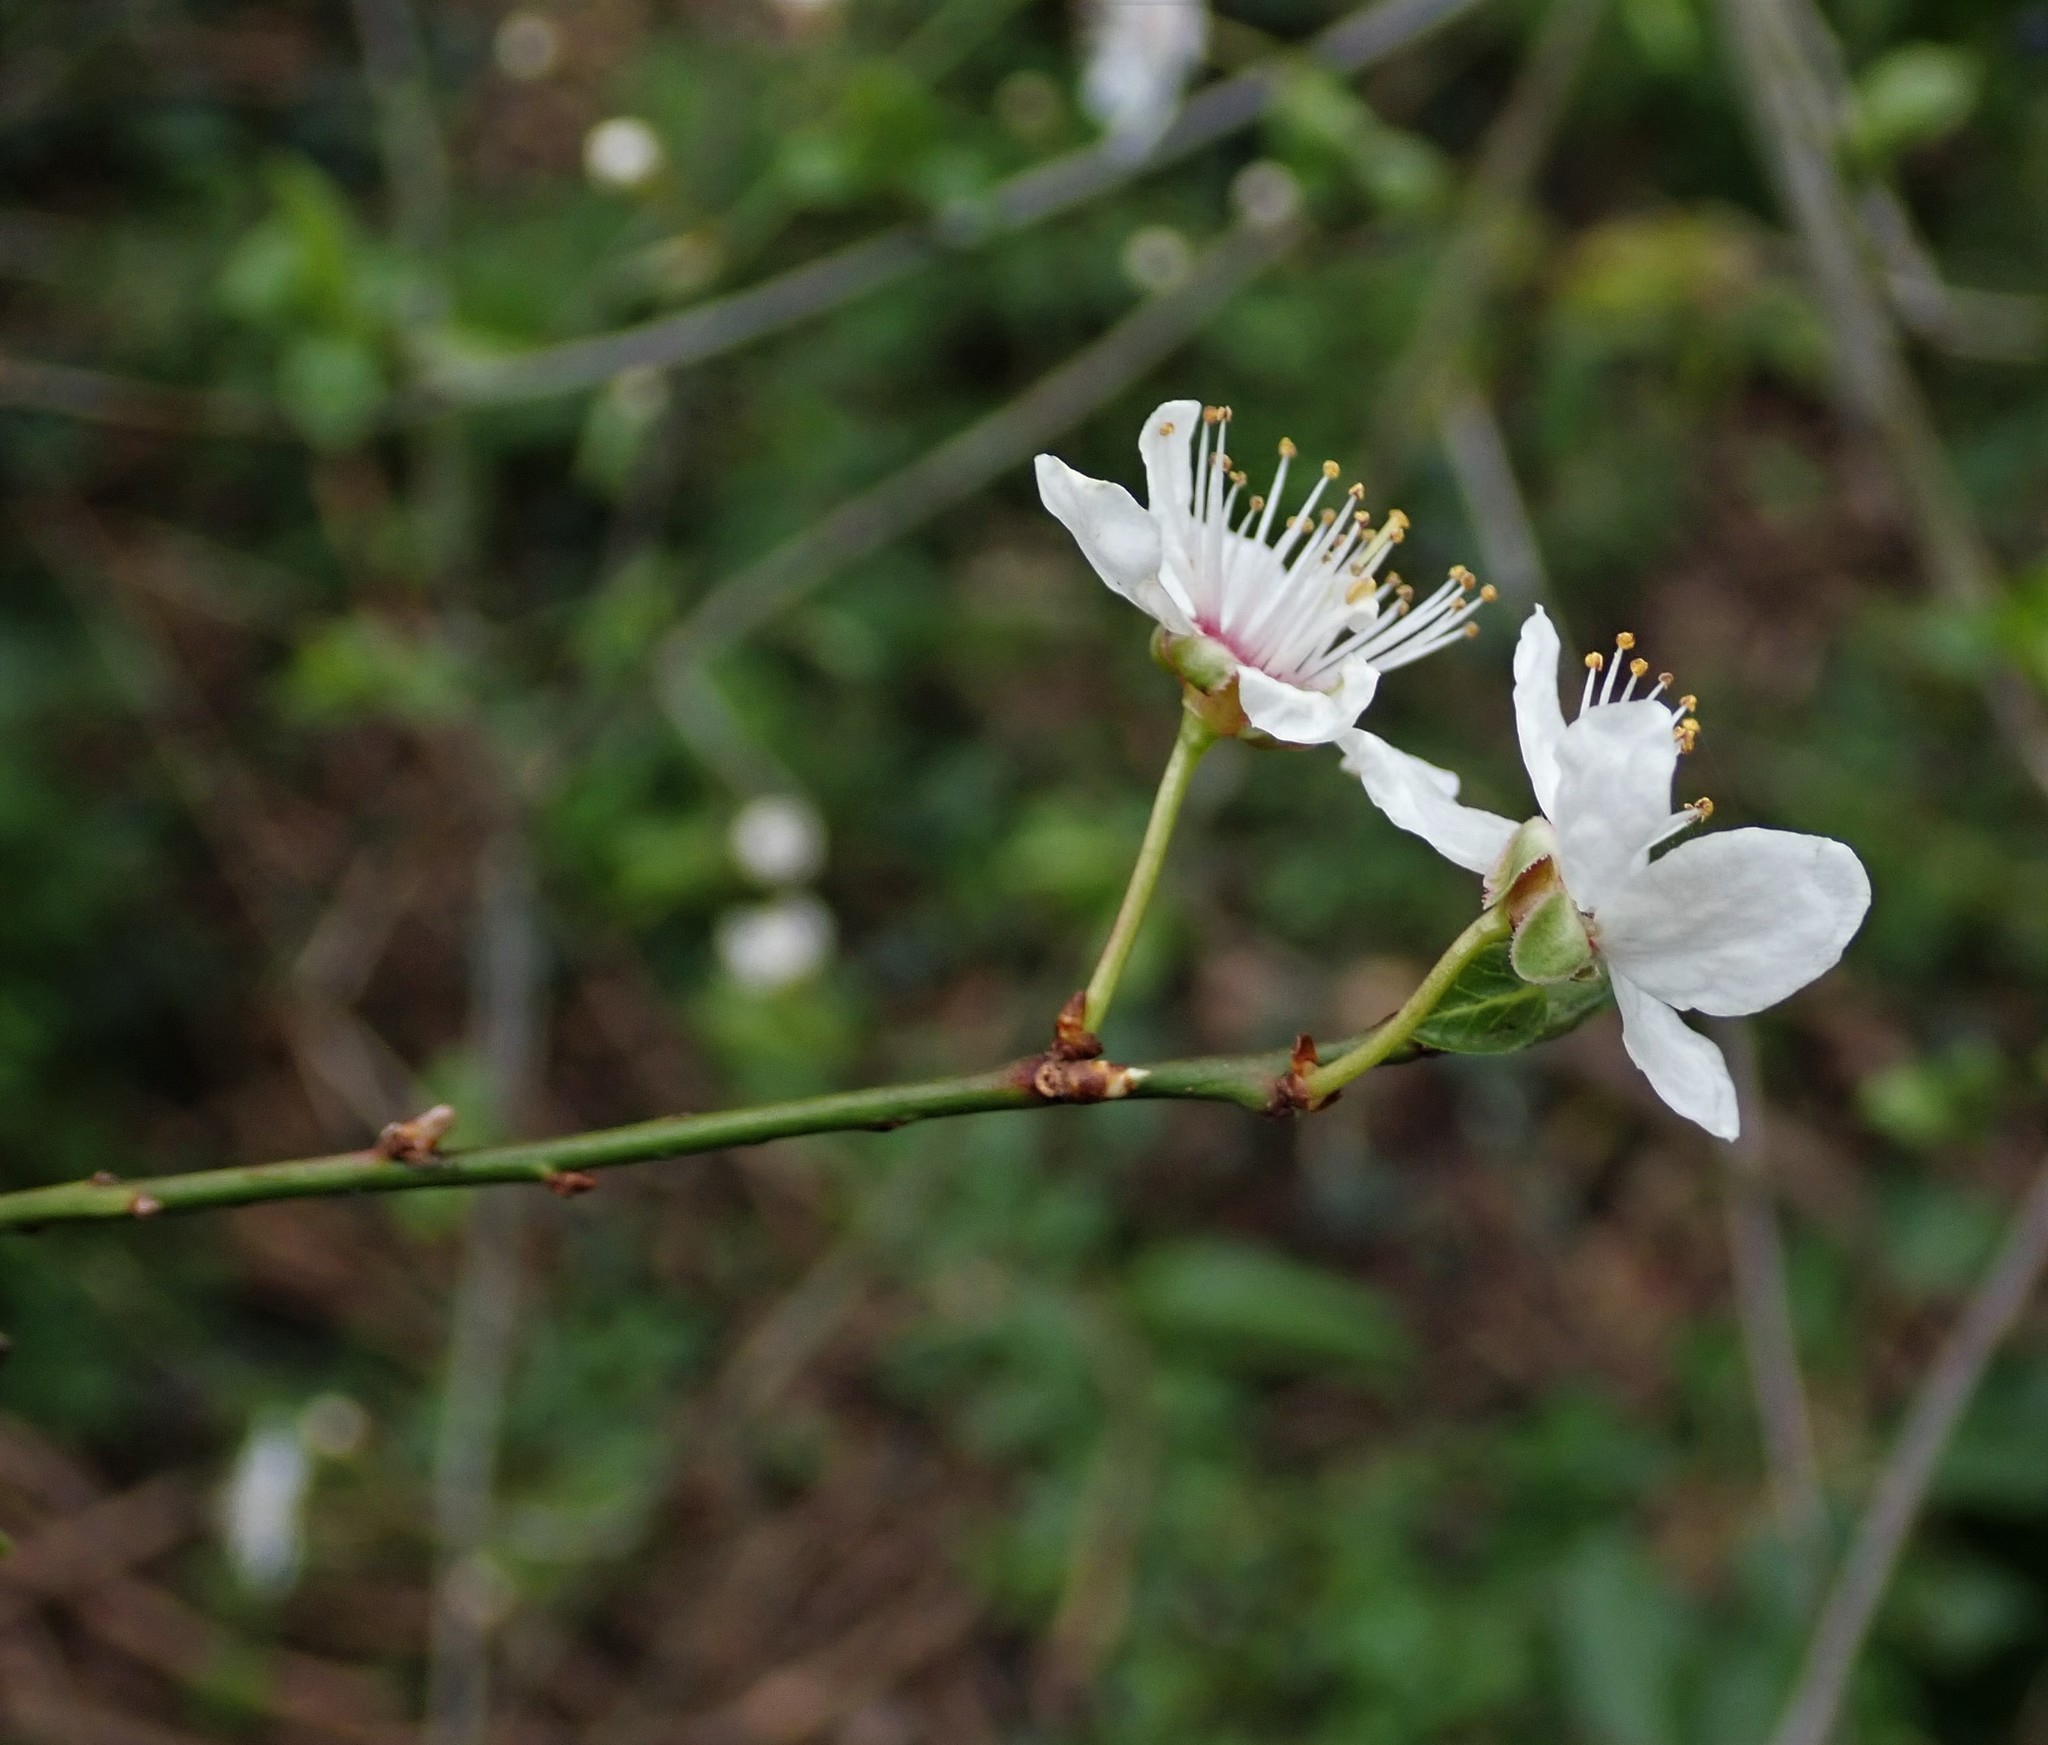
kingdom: Plantae
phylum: Tracheophyta
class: Magnoliopsida
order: Rosales
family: Rosaceae
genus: Prunus
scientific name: Prunus cerasifera
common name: Cherry plum
